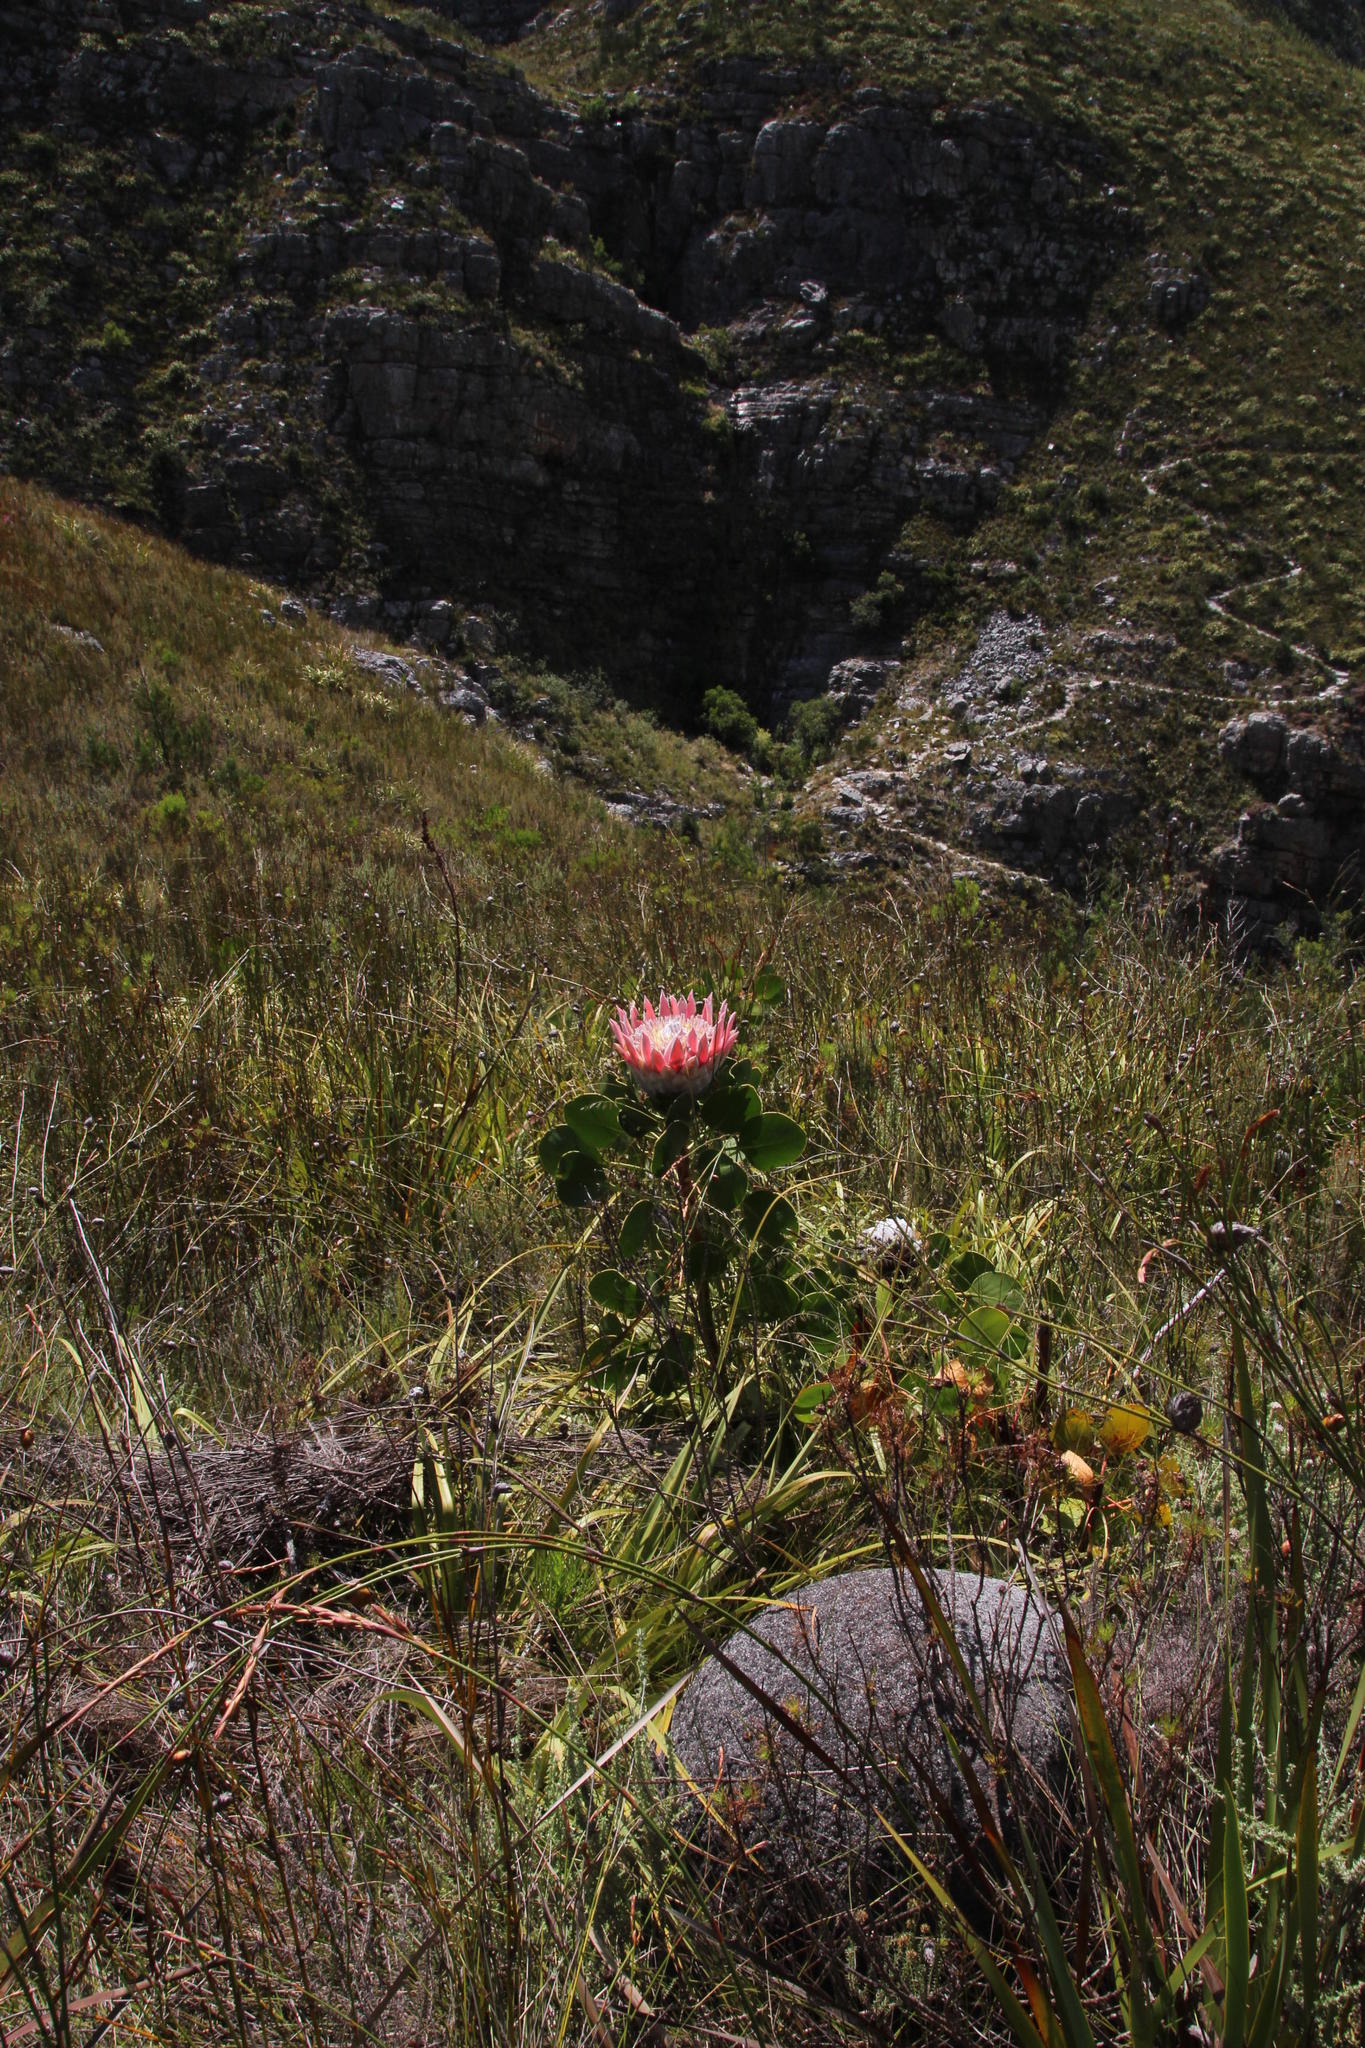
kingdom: Plantae
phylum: Tracheophyta
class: Magnoliopsida
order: Proteales
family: Proteaceae
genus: Protea
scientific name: Protea cynaroides
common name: King protea
